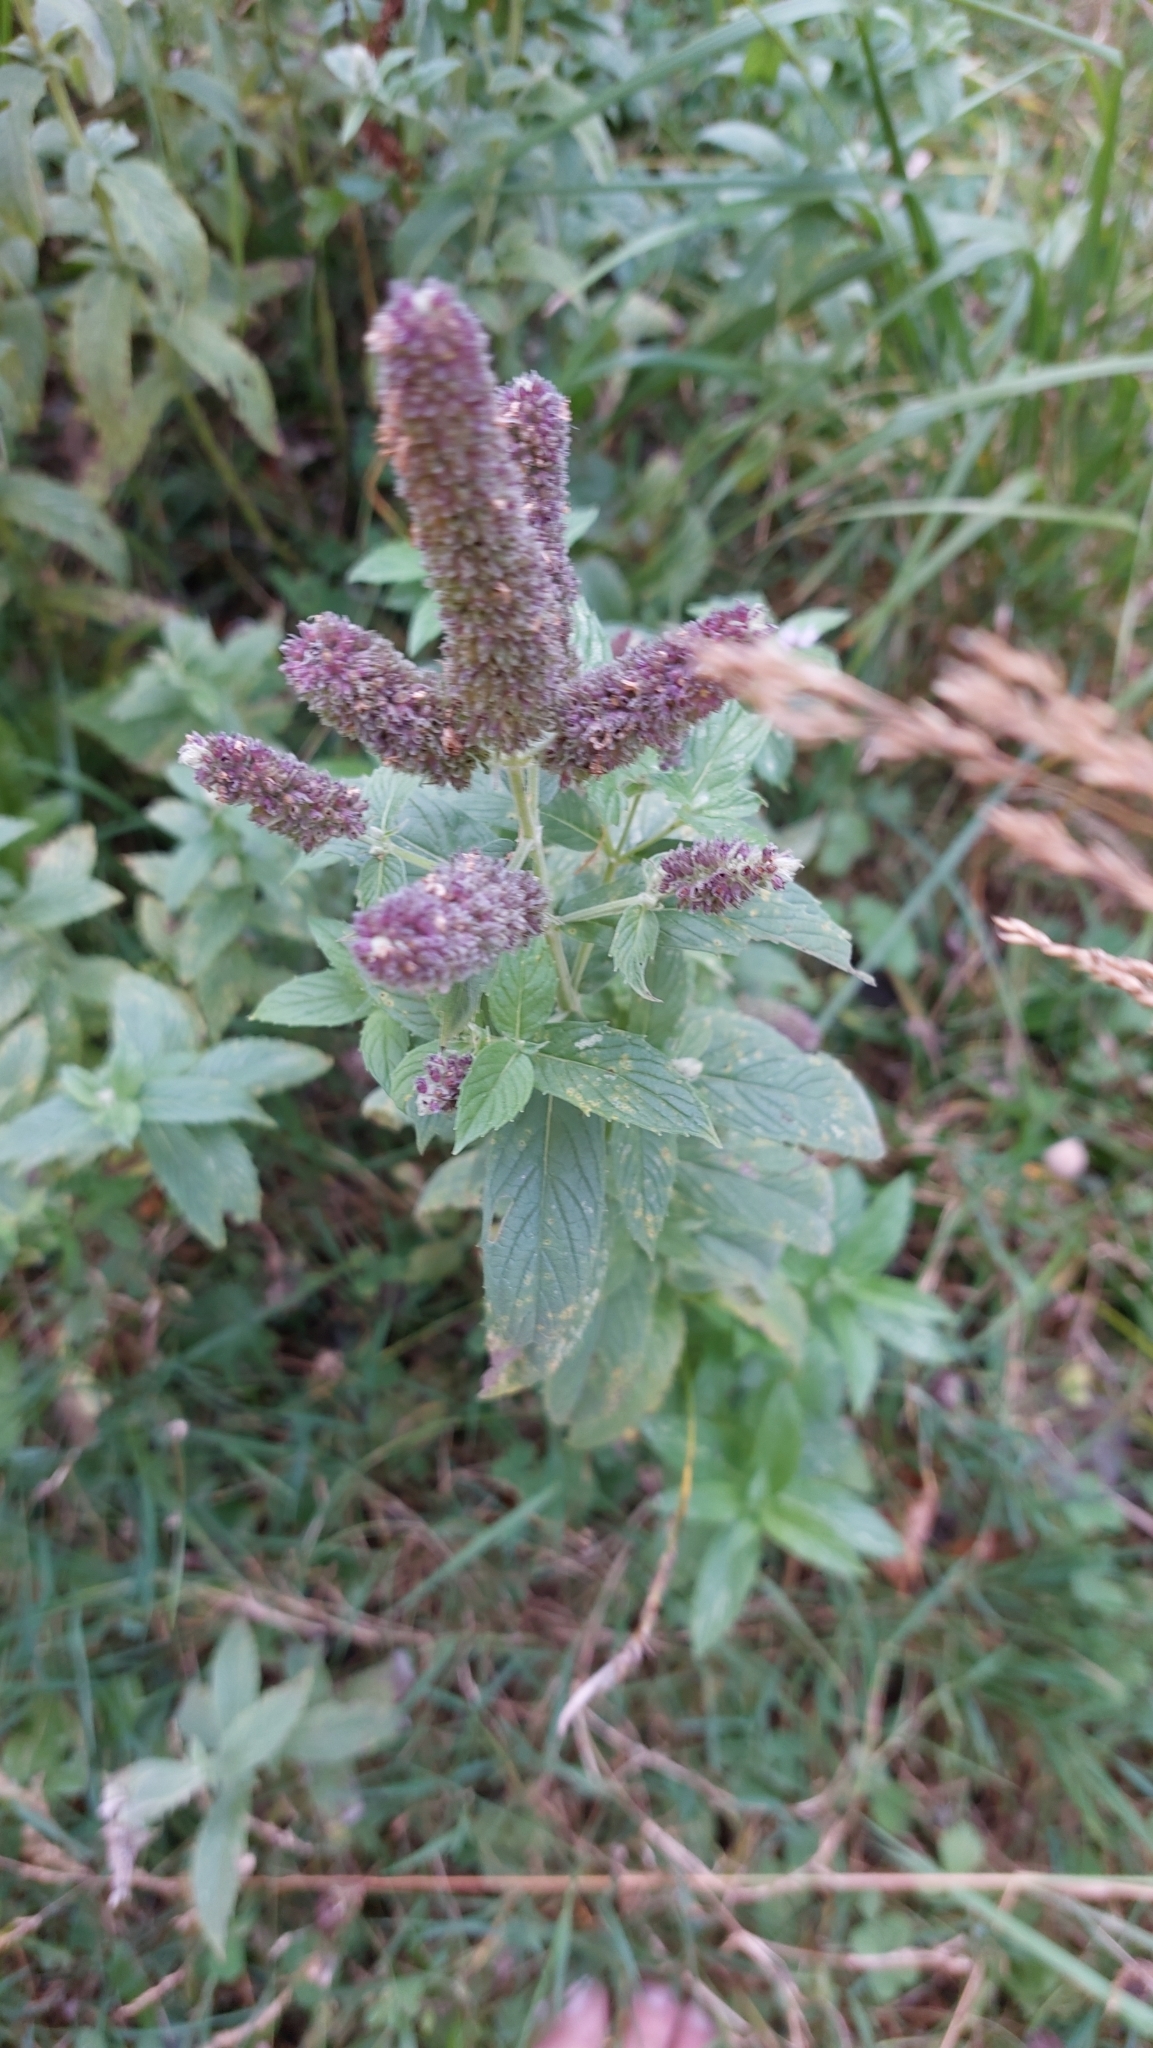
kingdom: Plantae
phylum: Tracheophyta
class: Magnoliopsida
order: Lamiales
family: Lamiaceae
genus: Mentha
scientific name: Mentha longifolia
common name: Horse mint
